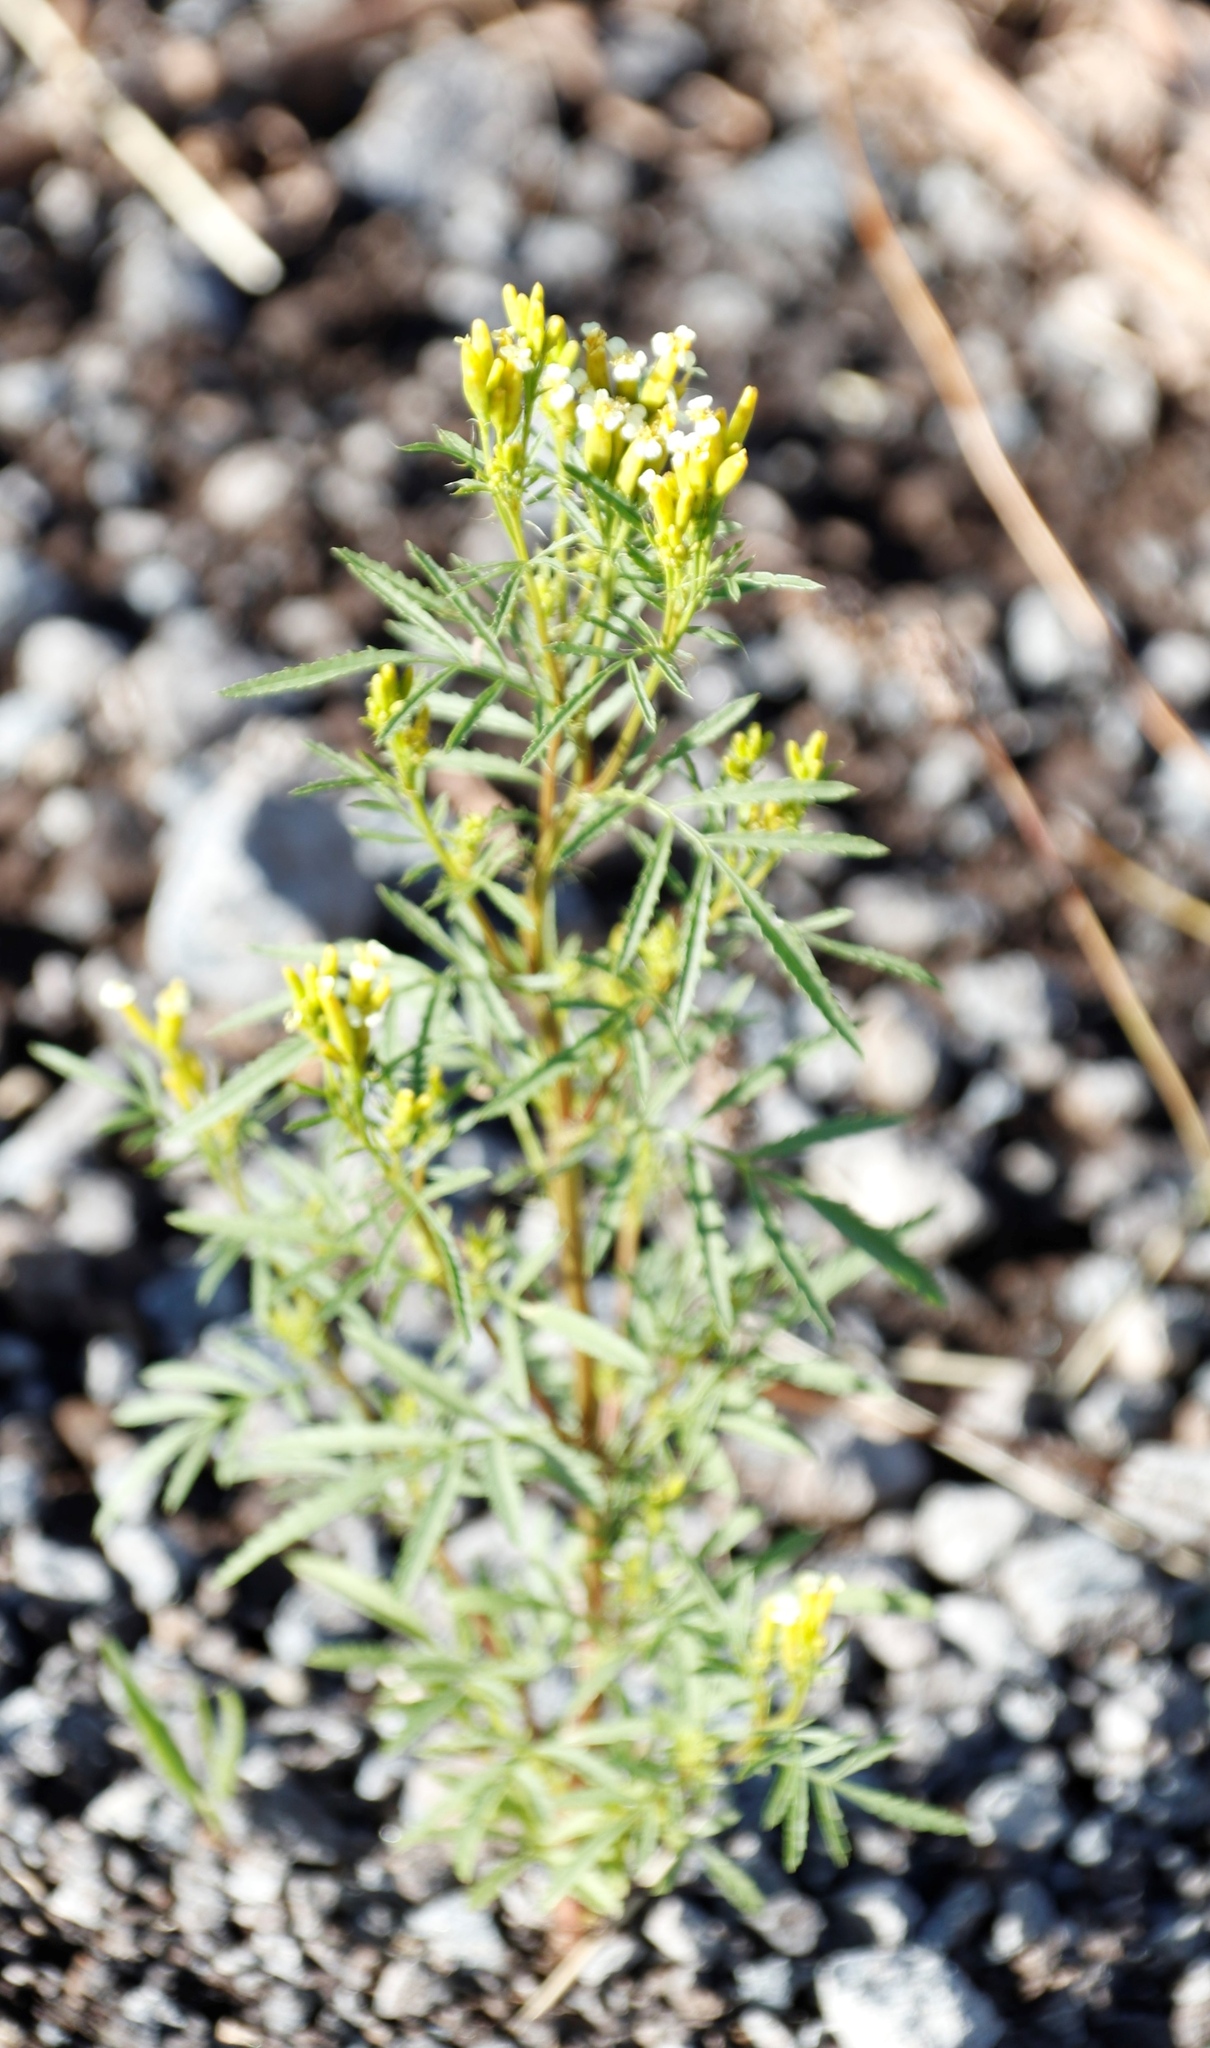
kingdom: Plantae
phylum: Tracheophyta
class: Magnoliopsida
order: Asterales
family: Asteraceae
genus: Tagetes
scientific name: Tagetes minuta
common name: Muster john henry
